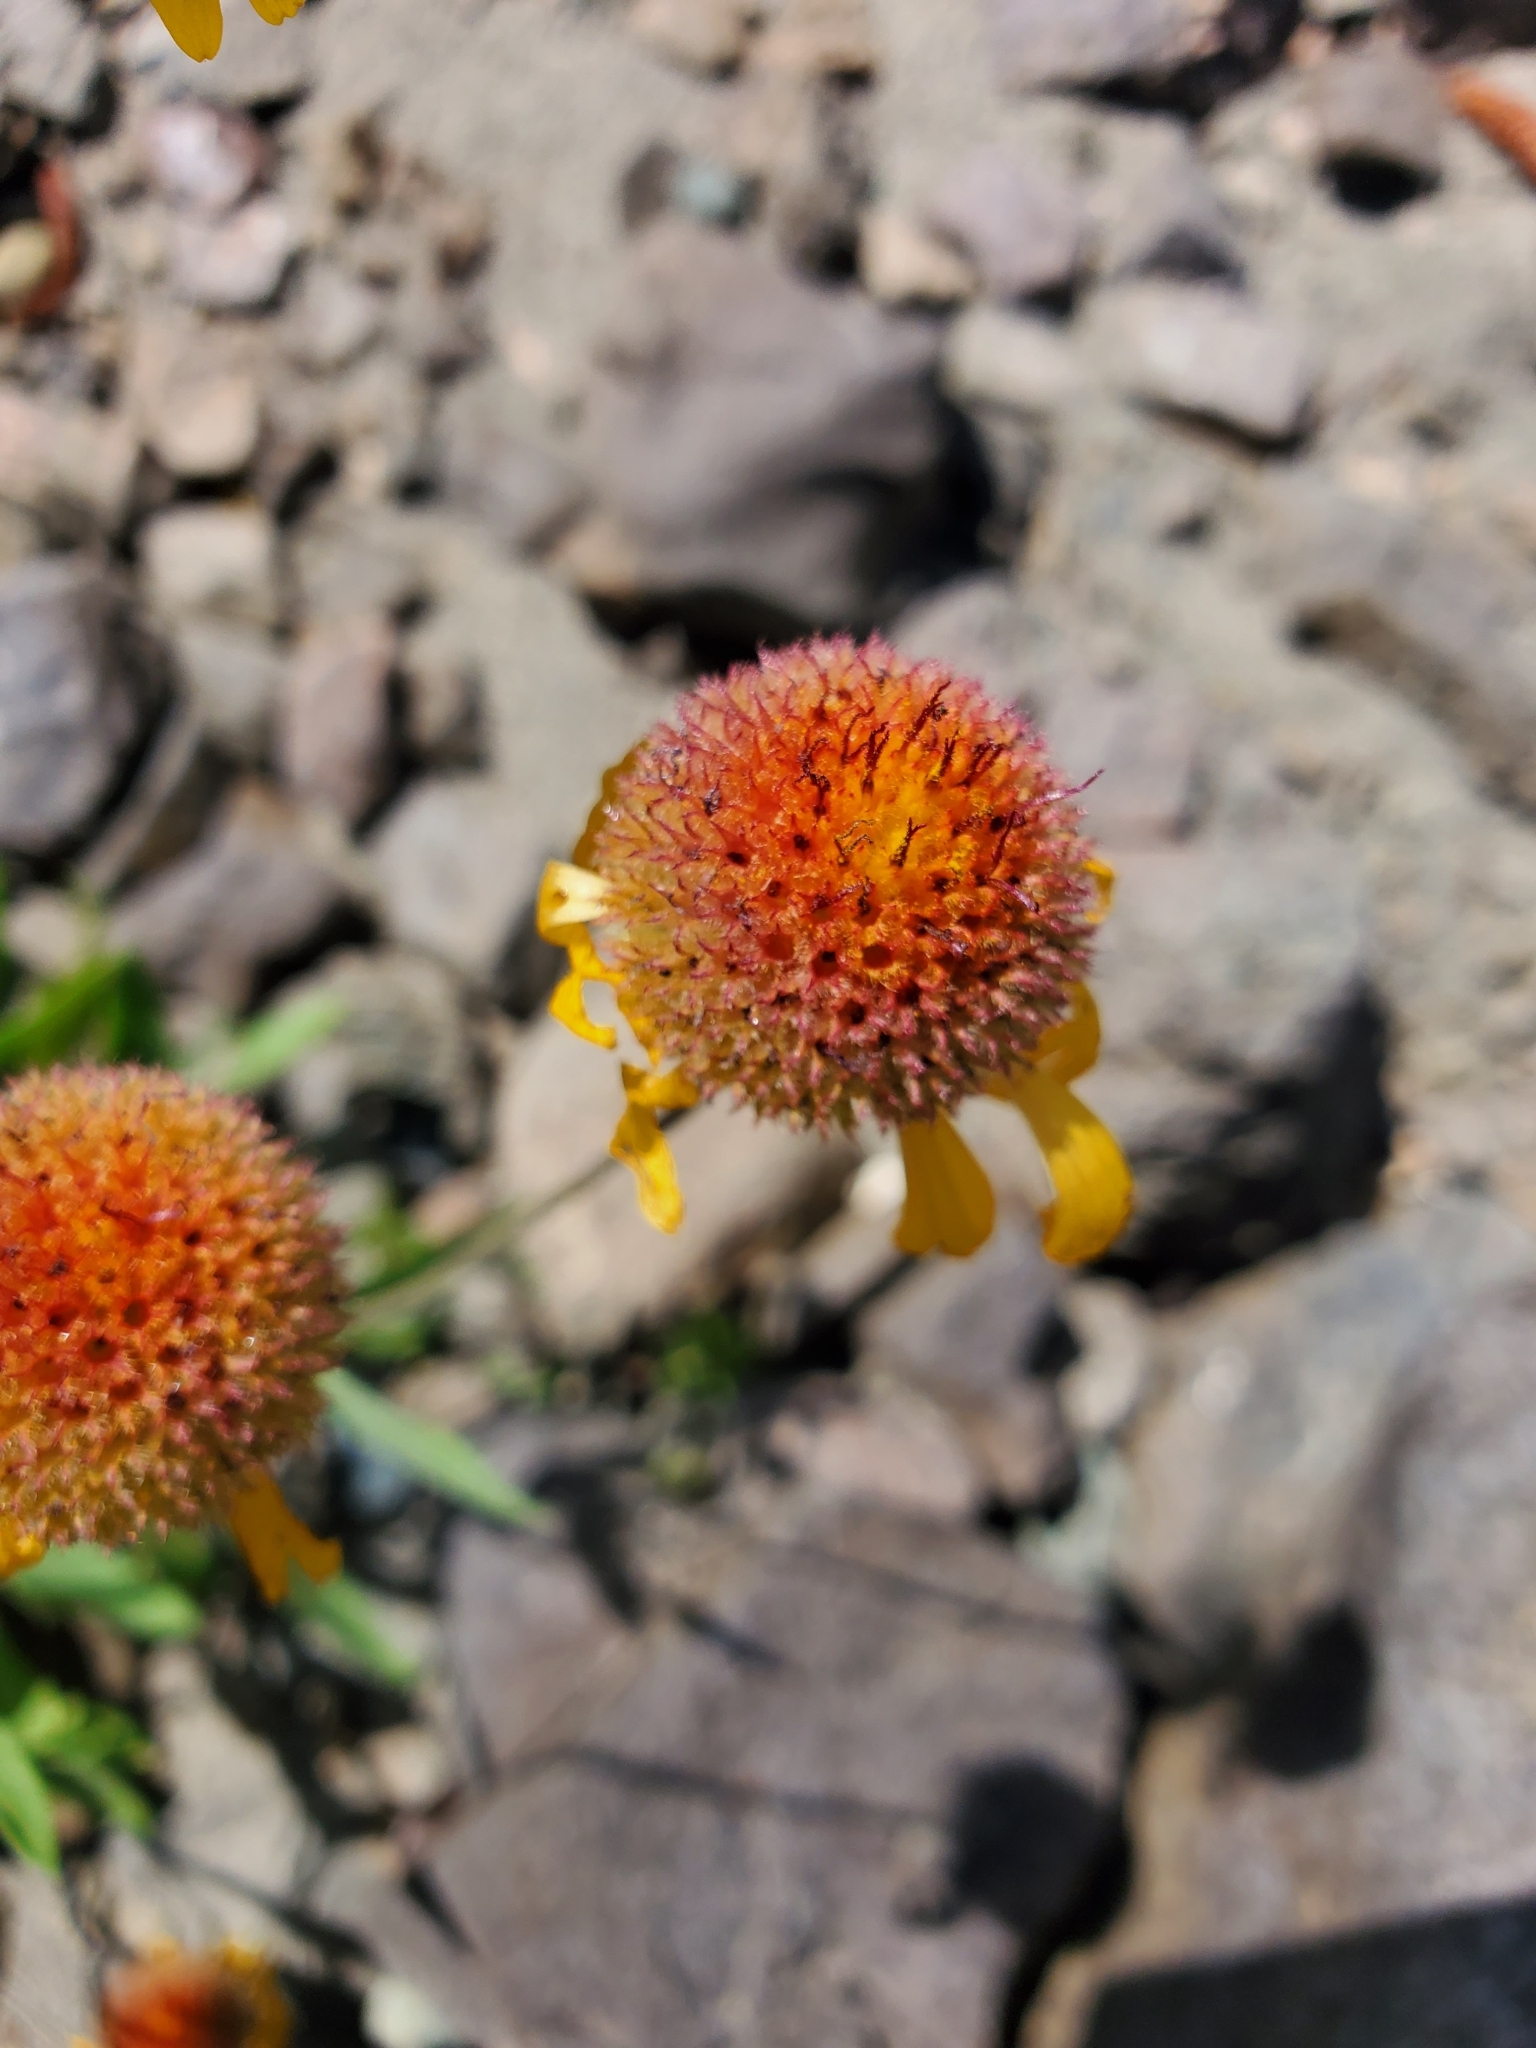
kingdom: Plantae
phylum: Tracheophyta
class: Magnoliopsida
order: Asterales
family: Asteraceae
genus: Gaillardia
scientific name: Gaillardia aristata
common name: Blanket-flower
